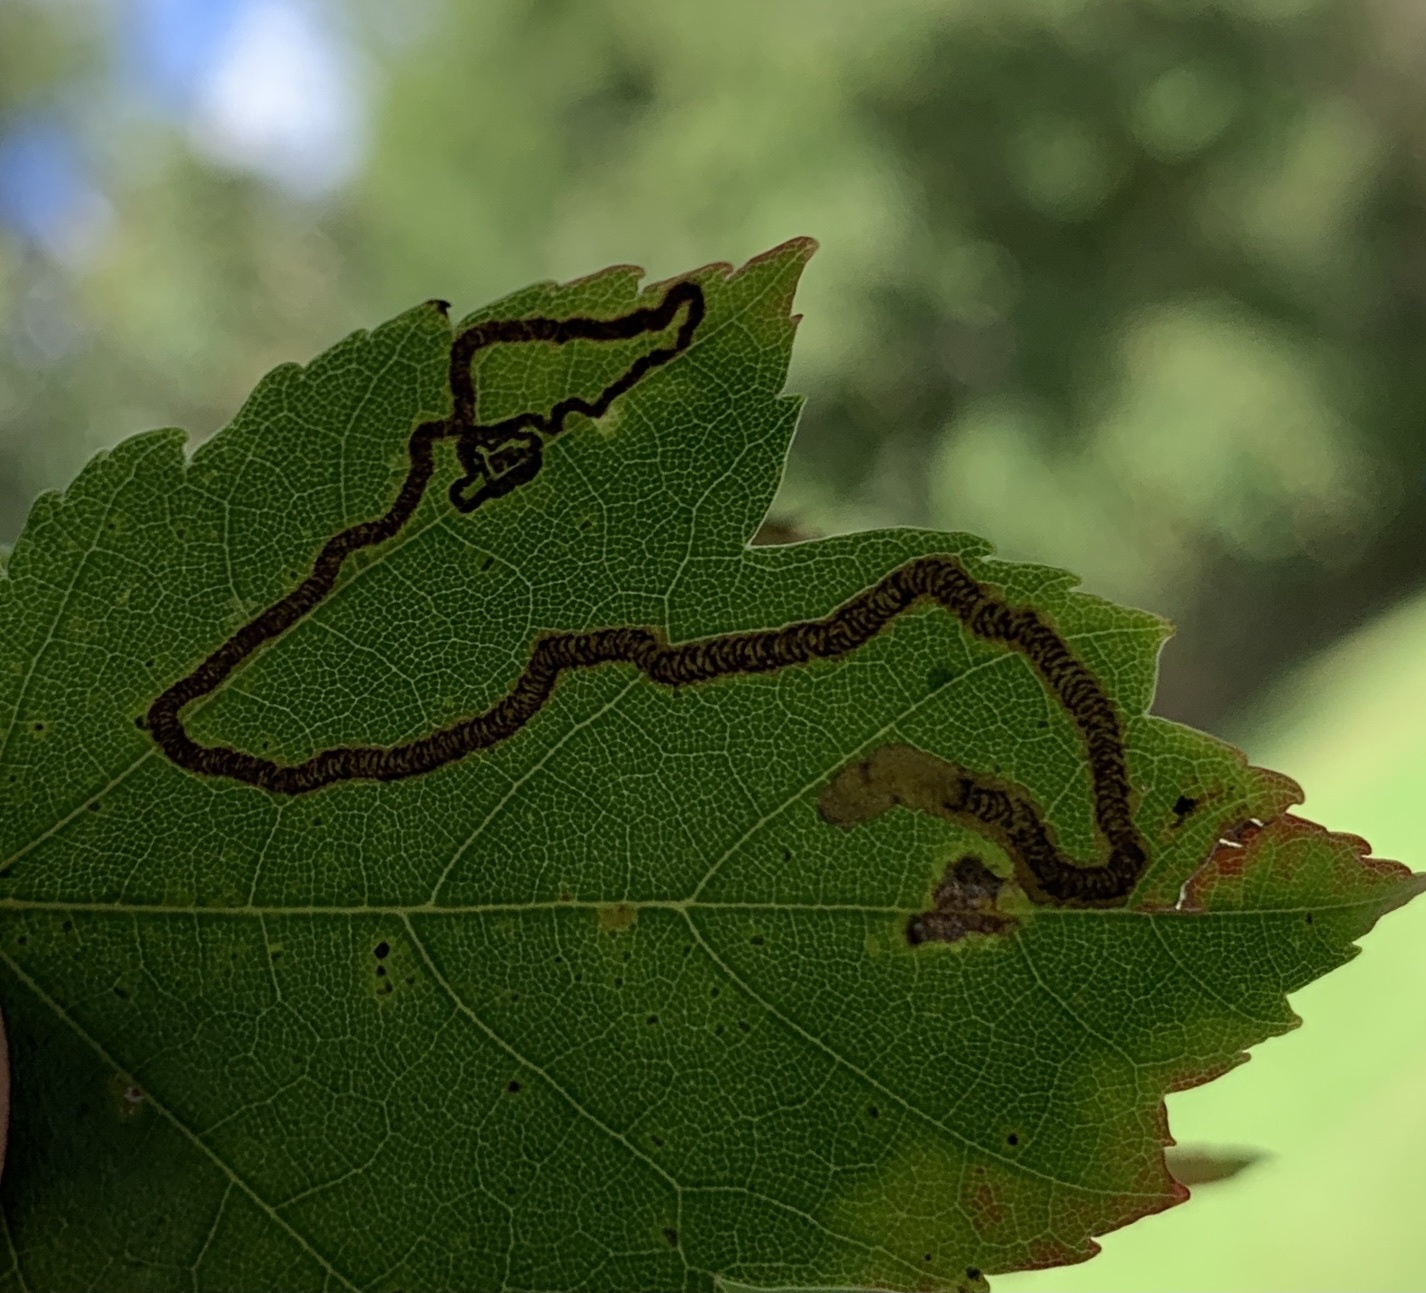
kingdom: Animalia
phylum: Arthropoda
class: Insecta
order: Lepidoptera
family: Nepticulidae
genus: Glaucolepis
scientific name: Glaucolepis saccharella
